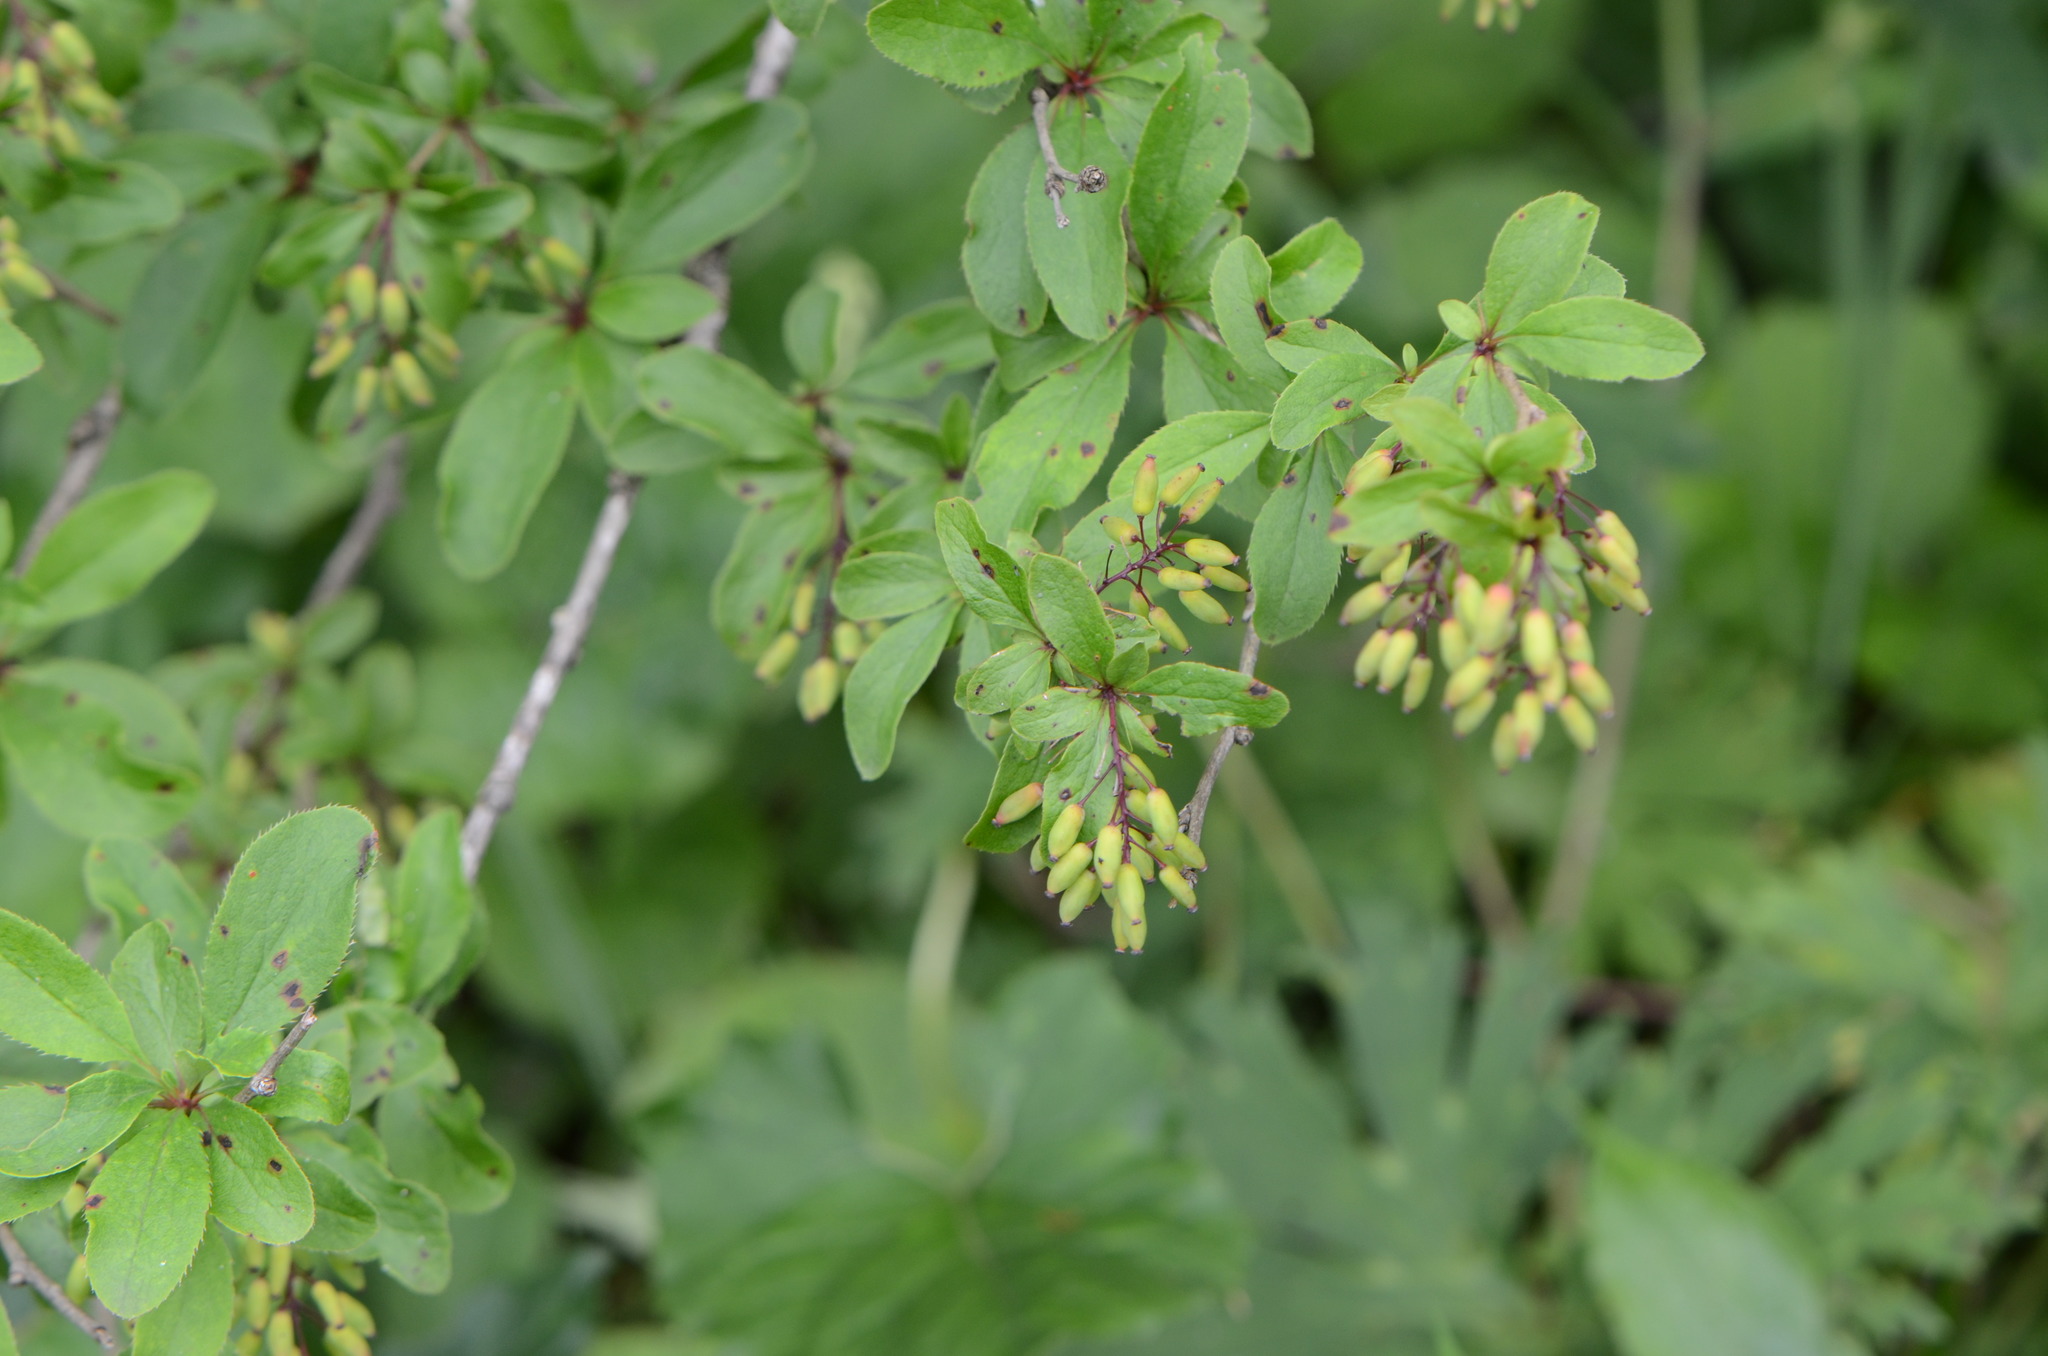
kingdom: Plantae
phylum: Tracheophyta
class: Magnoliopsida
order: Ranunculales
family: Berberidaceae
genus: Berberis
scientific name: Berberis vulgaris
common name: Barberry
